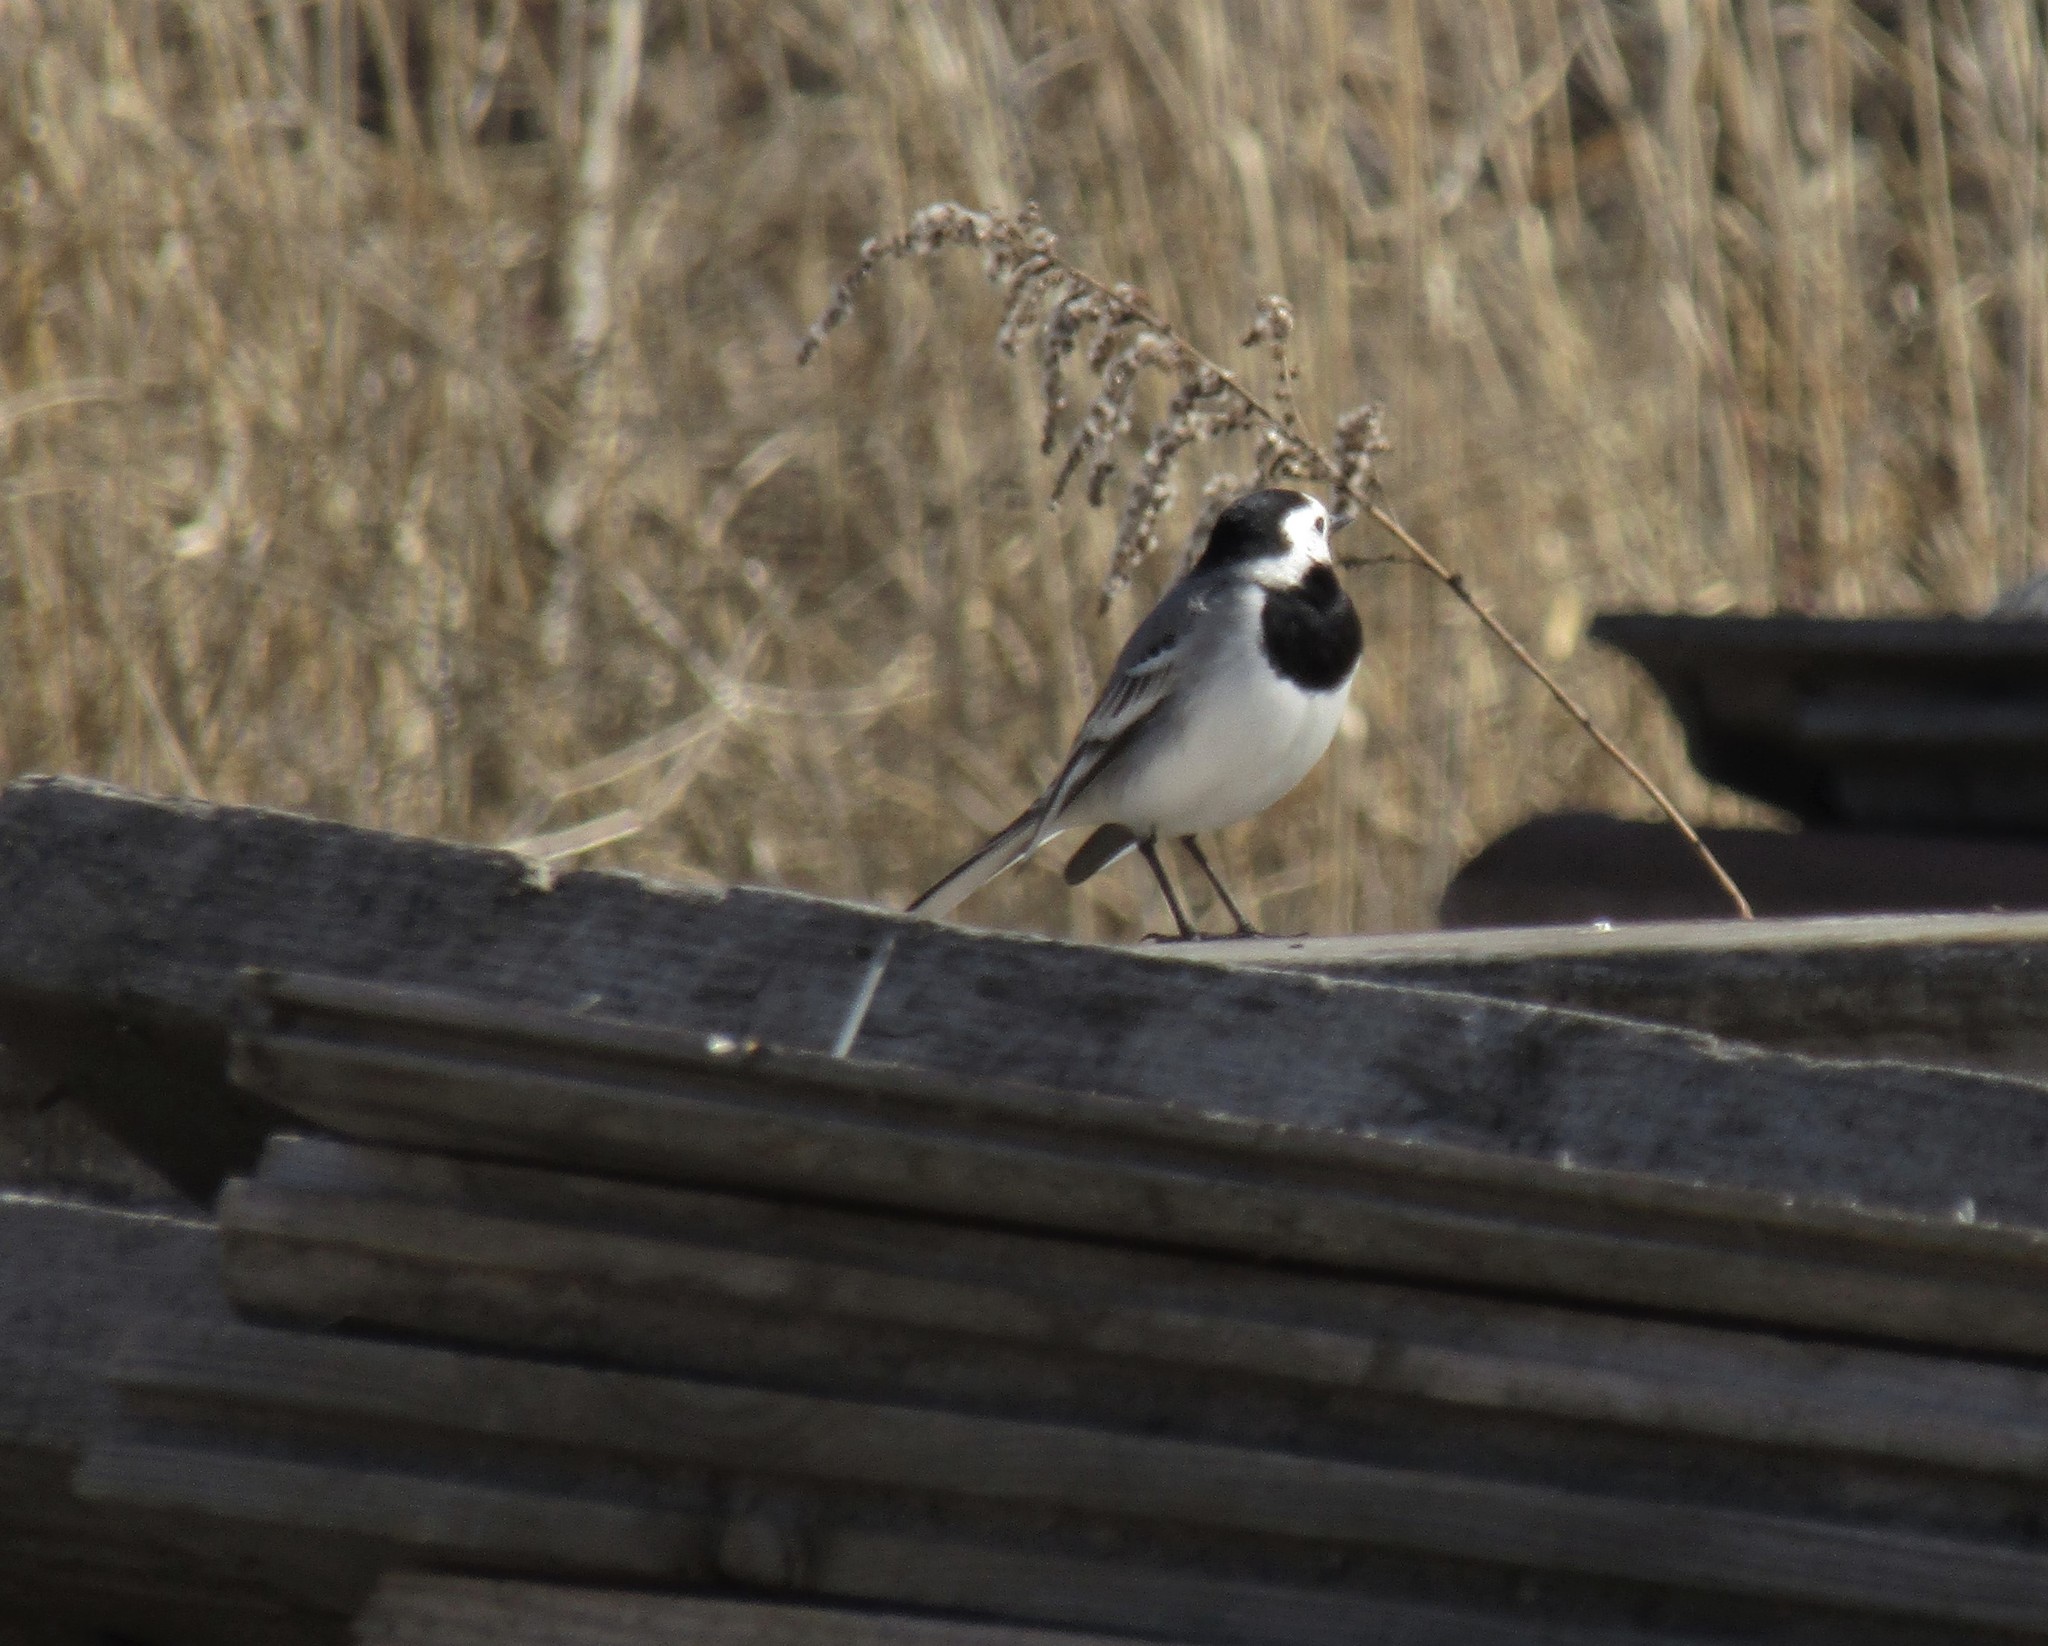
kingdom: Animalia
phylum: Chordata
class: Aves
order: Passeriformes
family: Motacillidae
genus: Motacilla
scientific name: Motacilla alba
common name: White wagtail
